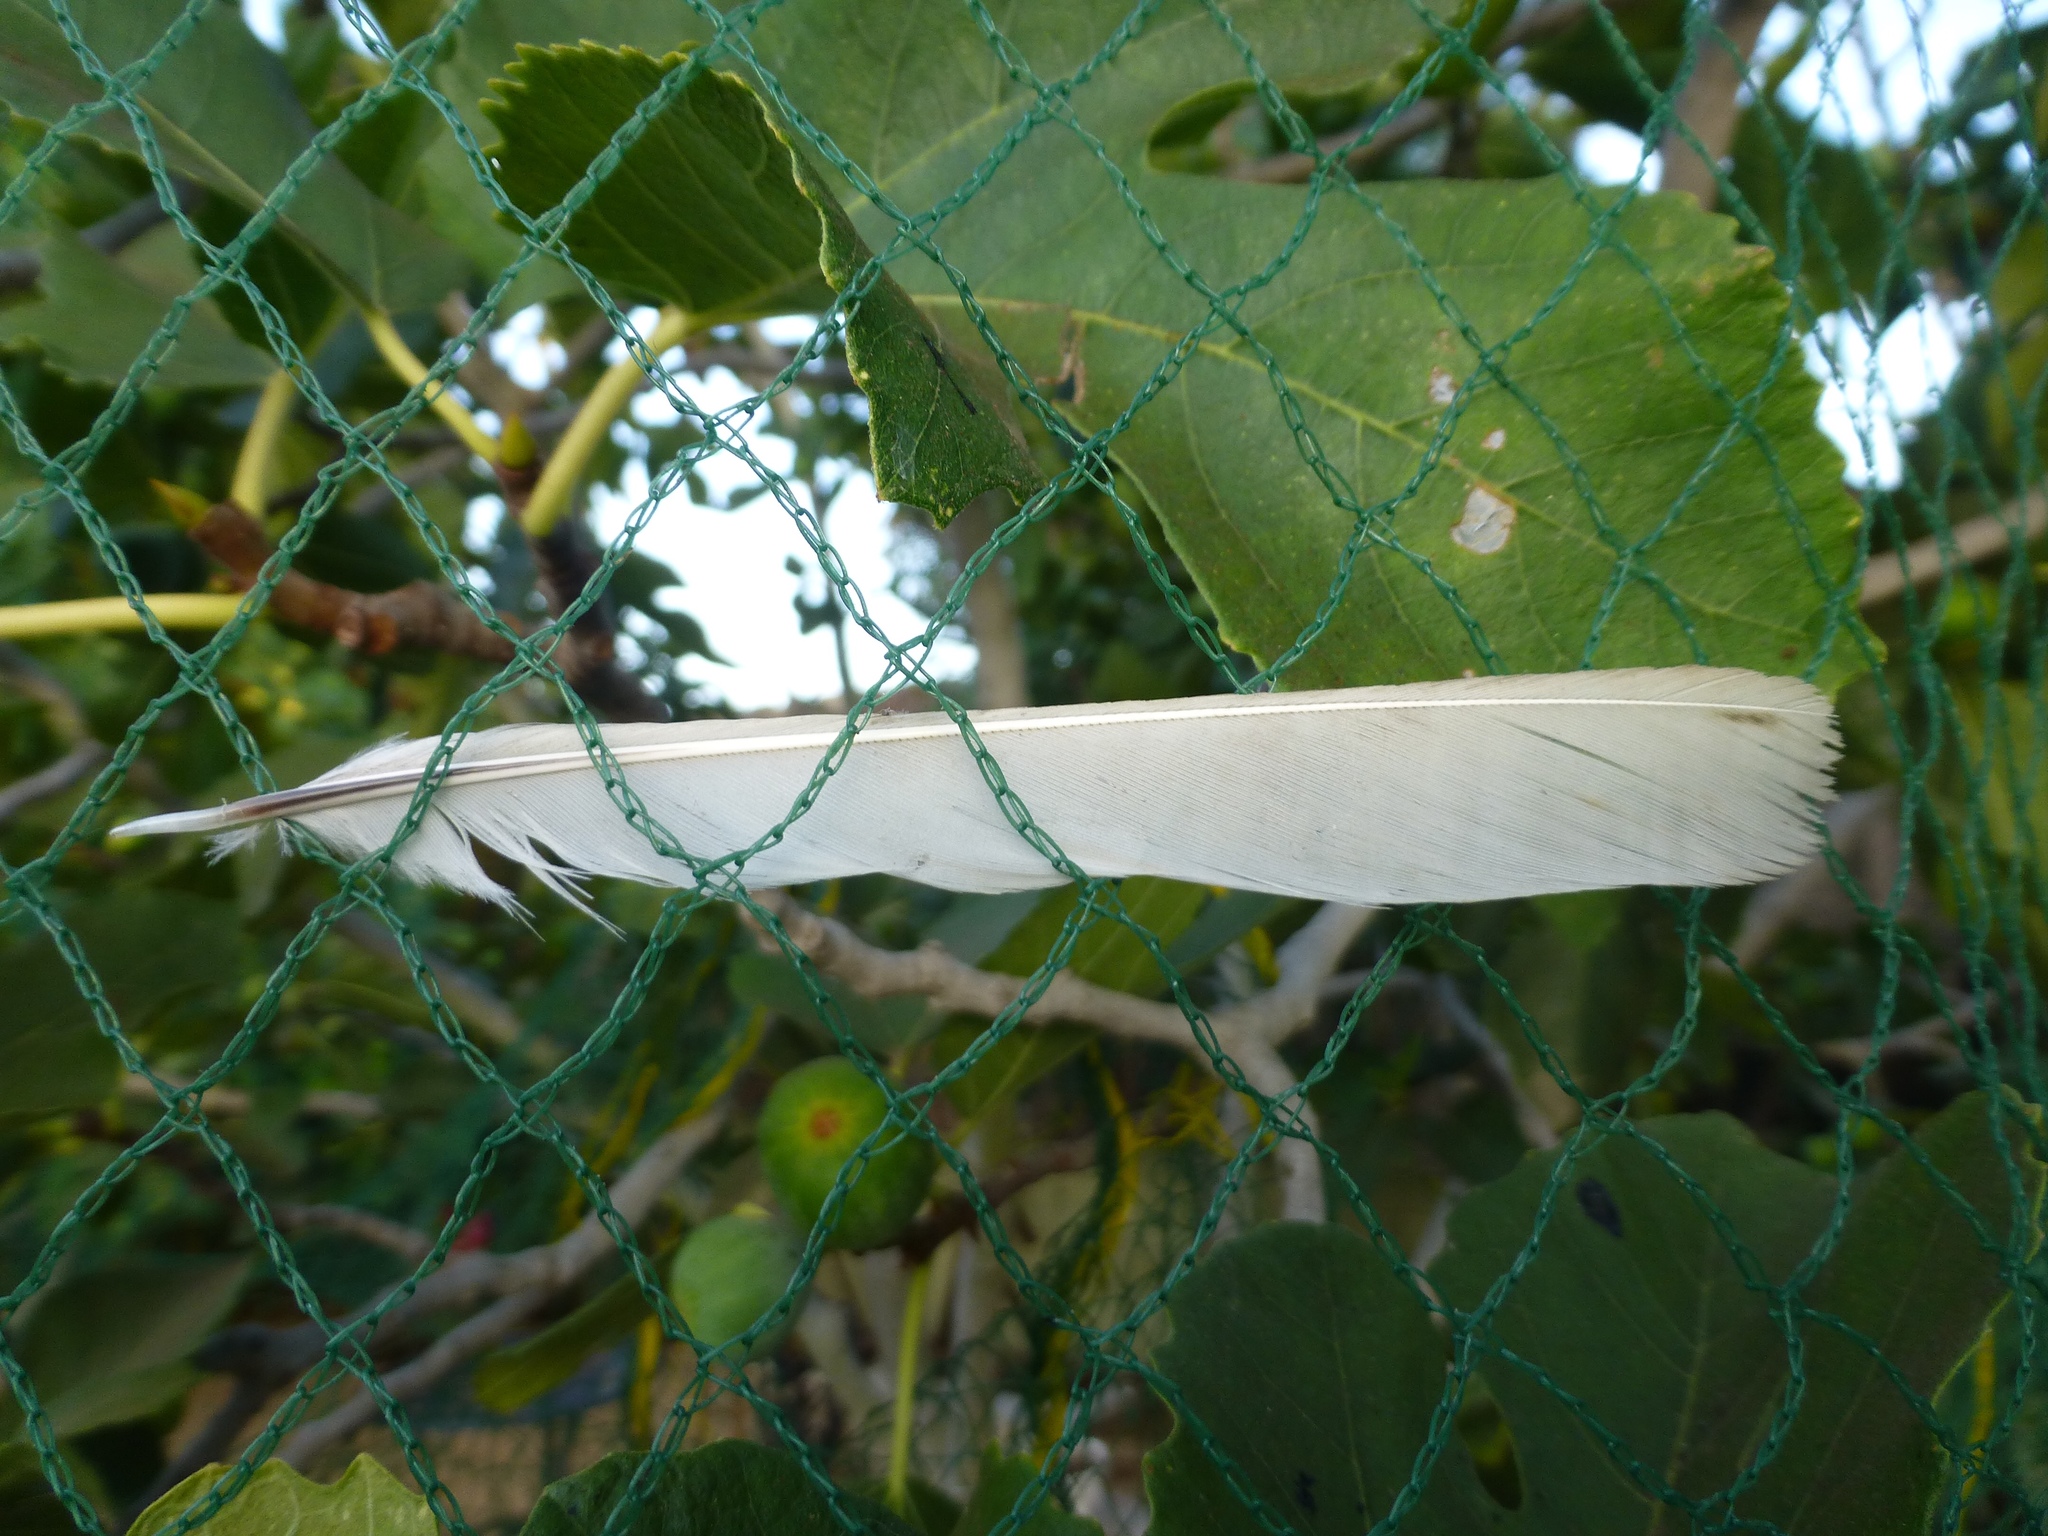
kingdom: Animalia
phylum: Chordata
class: Aves
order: Passeriformes
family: Mimidae
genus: Mimus
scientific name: Mimus polyglottos
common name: Northern mockingbird
